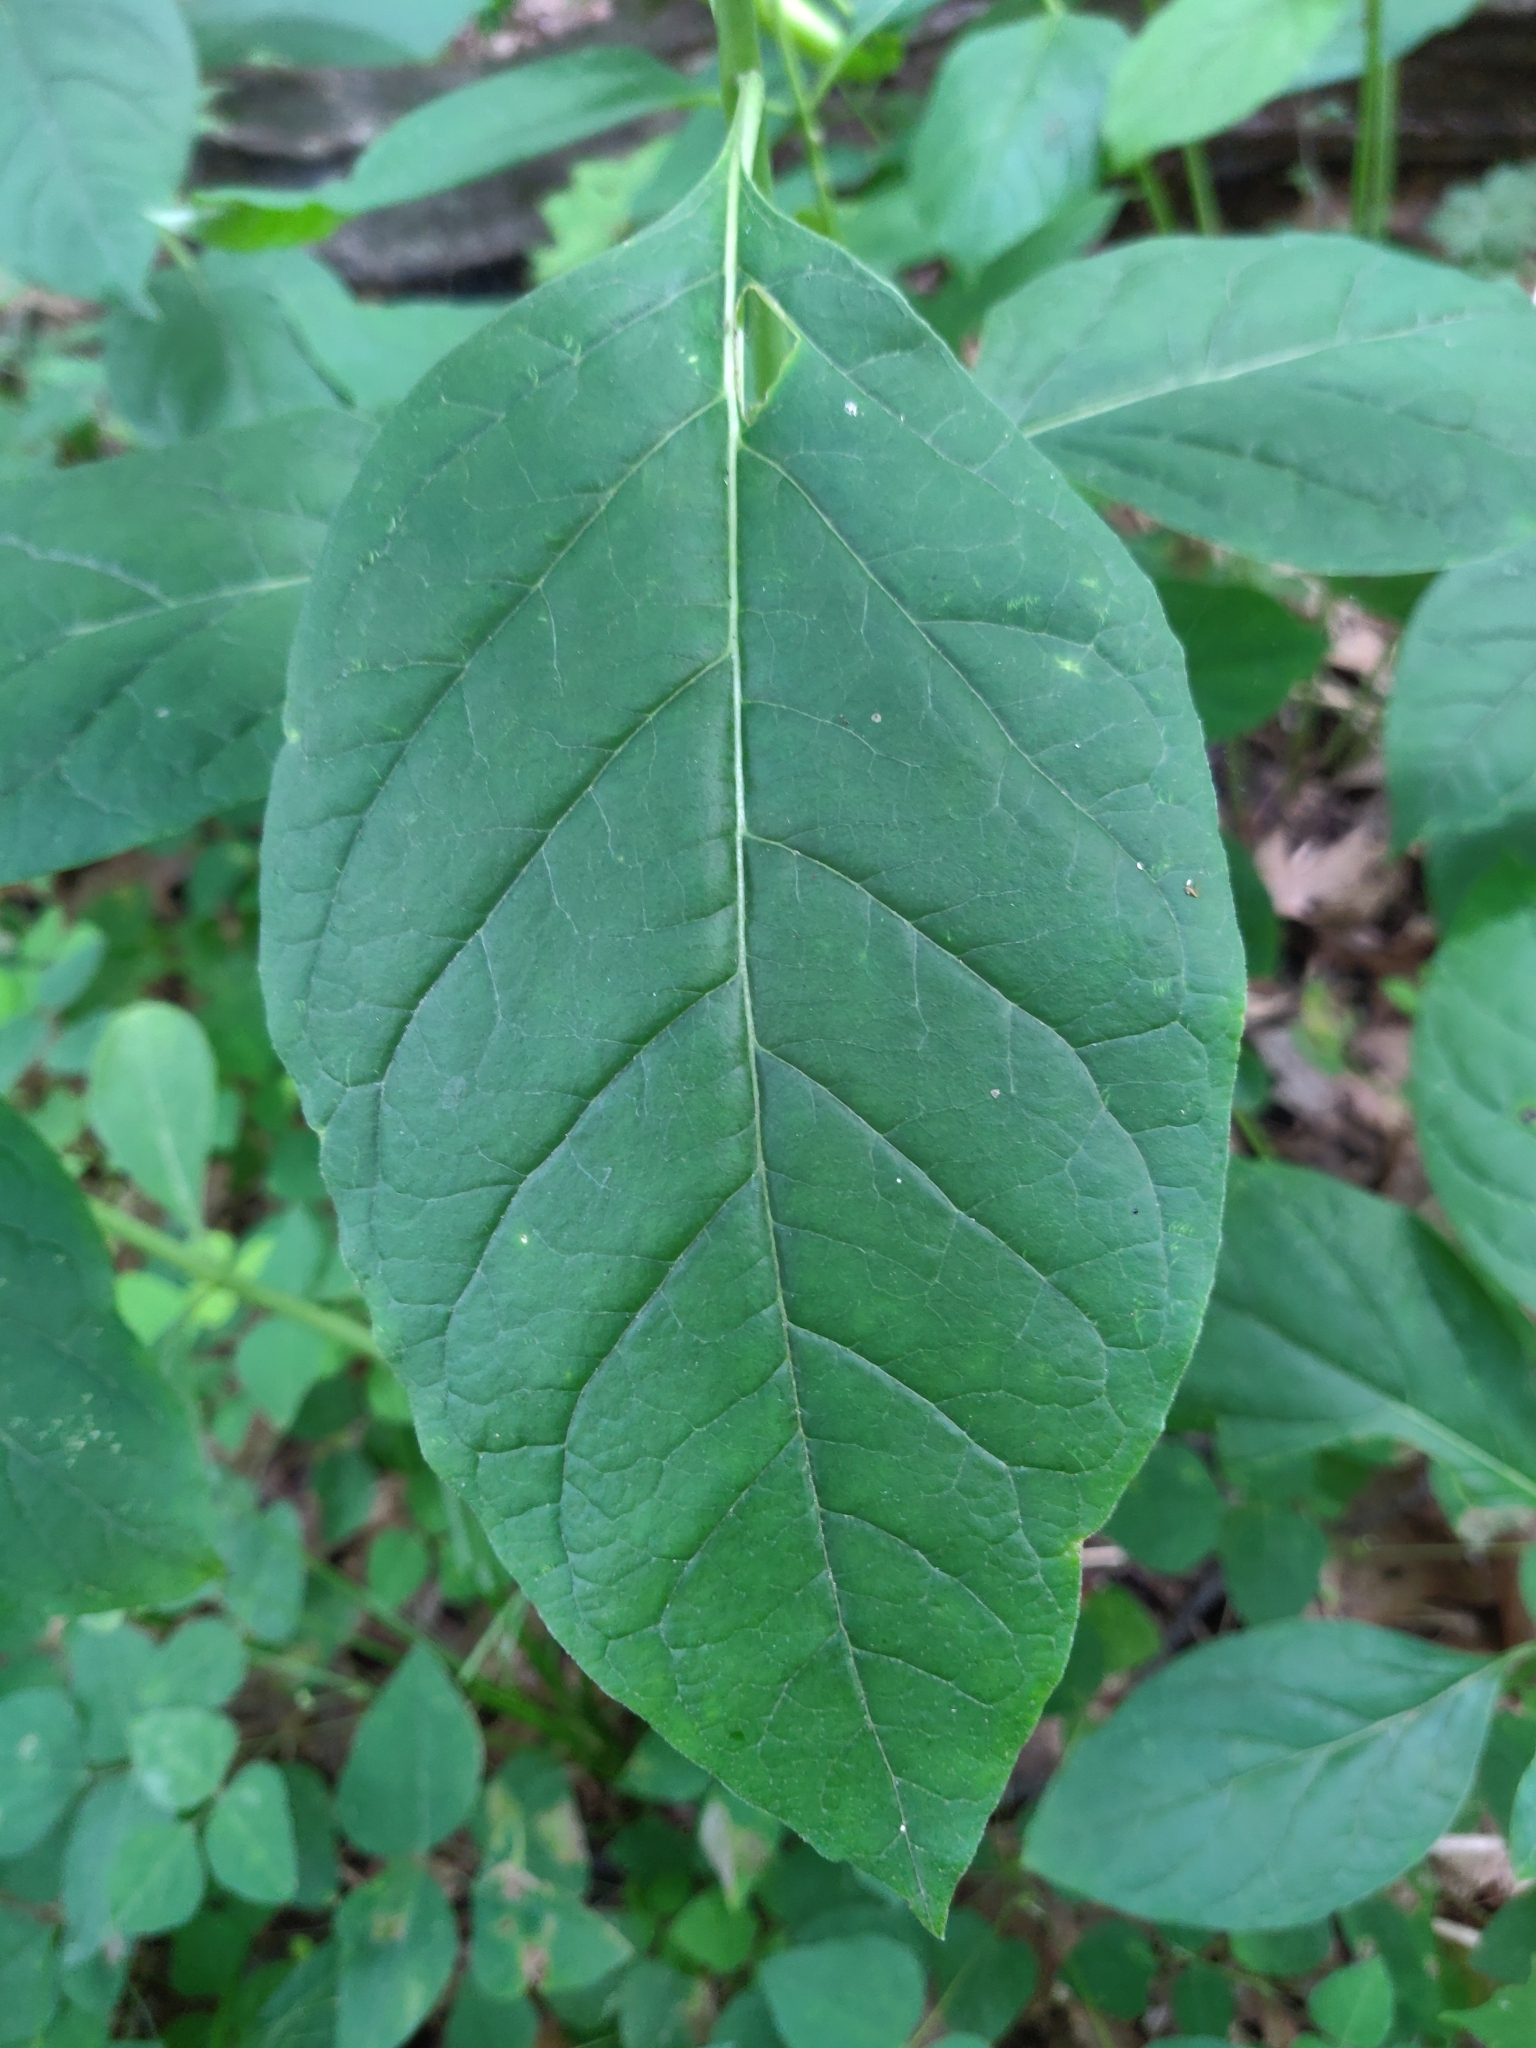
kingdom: Plantae
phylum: Tracheophyta
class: Magnoliopsida
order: Gentianales
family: Apocynaceae
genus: Asclepias
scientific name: Asclepias exaltata
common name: Poke milkweed
